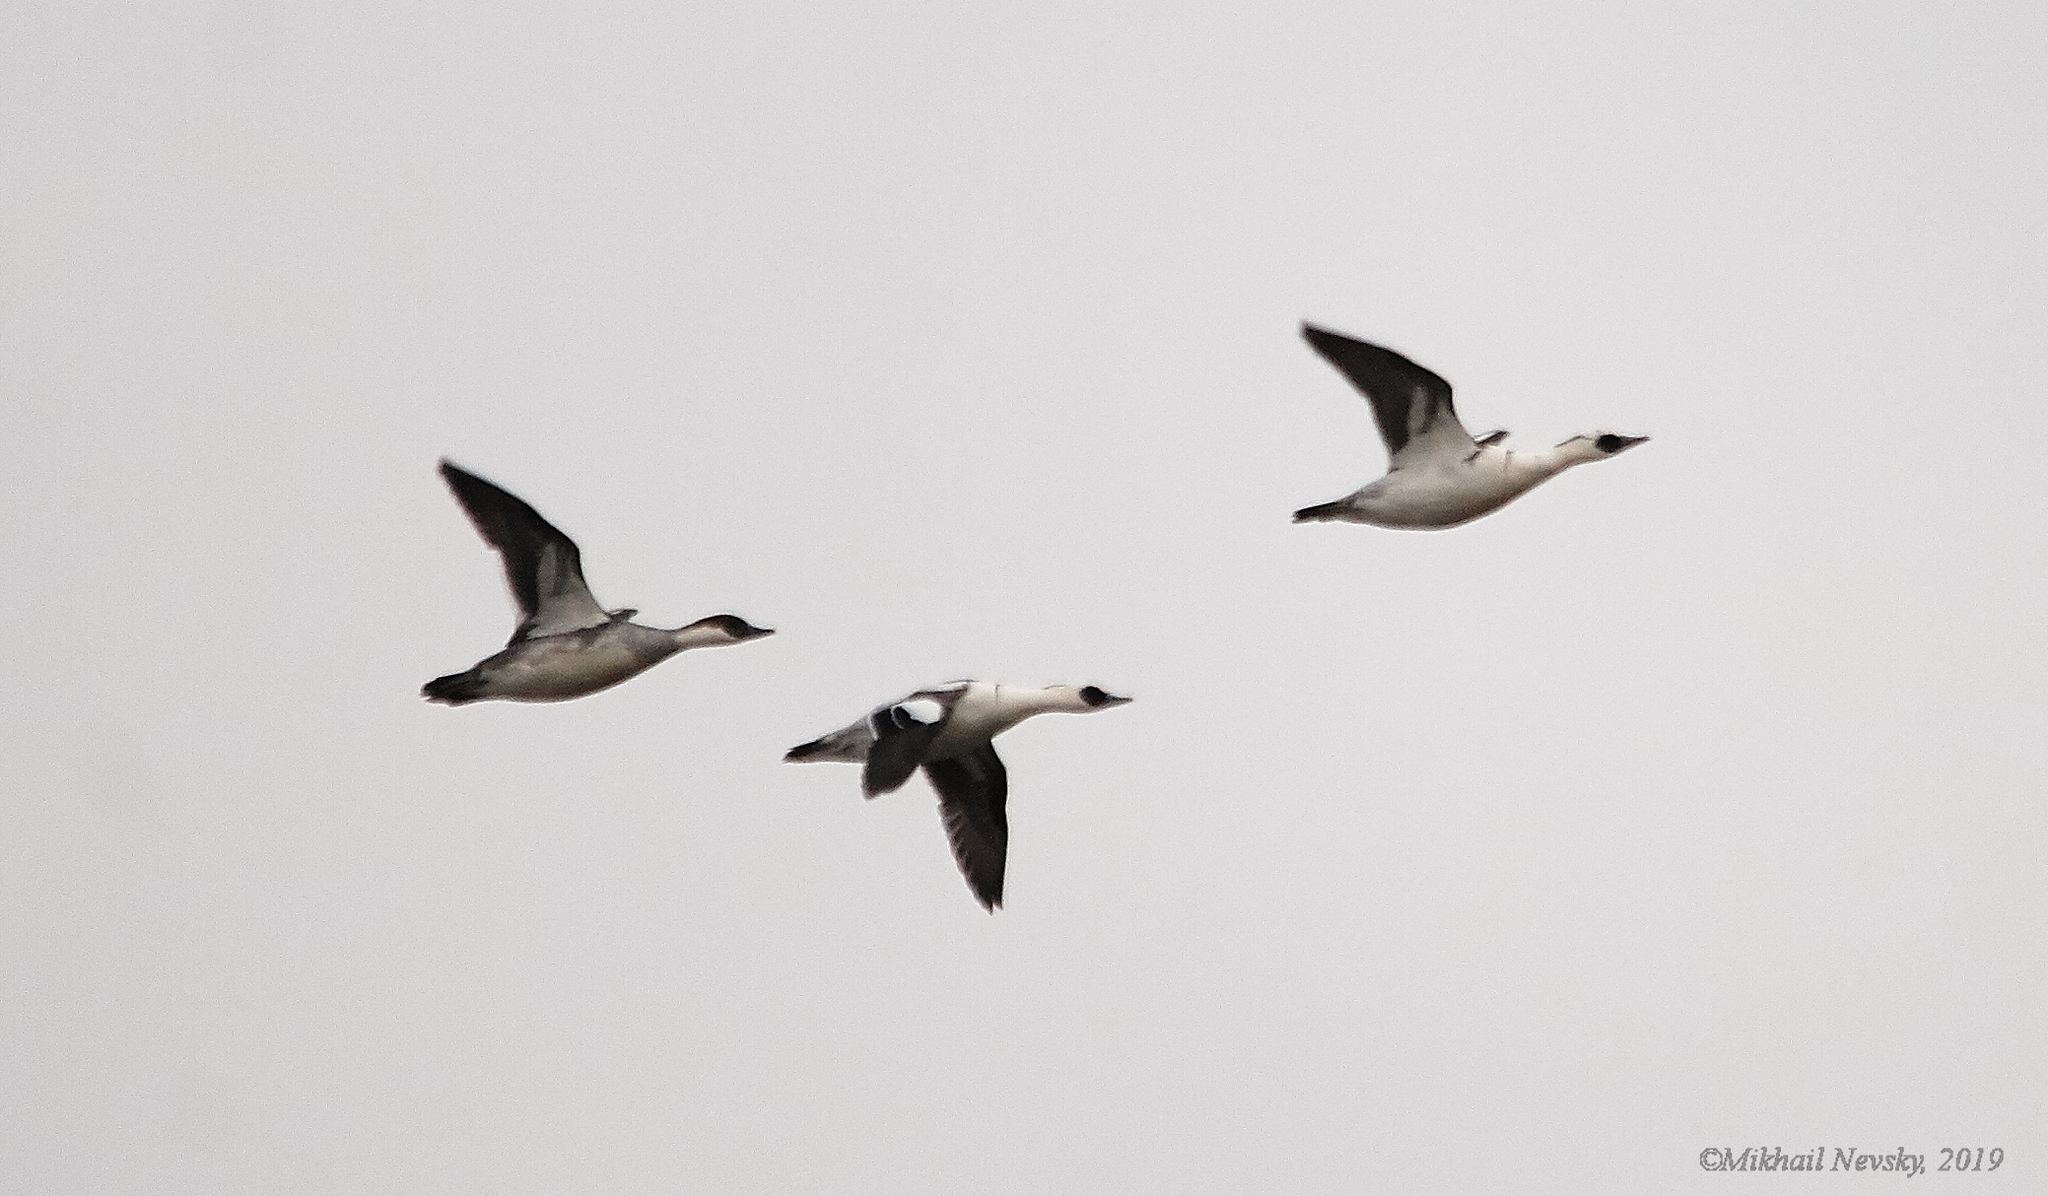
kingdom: Animalia
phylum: Chordata
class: Aves
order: Anseriformes
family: Anatidae
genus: Mergellus
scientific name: Mergellus albellus
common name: Smew
